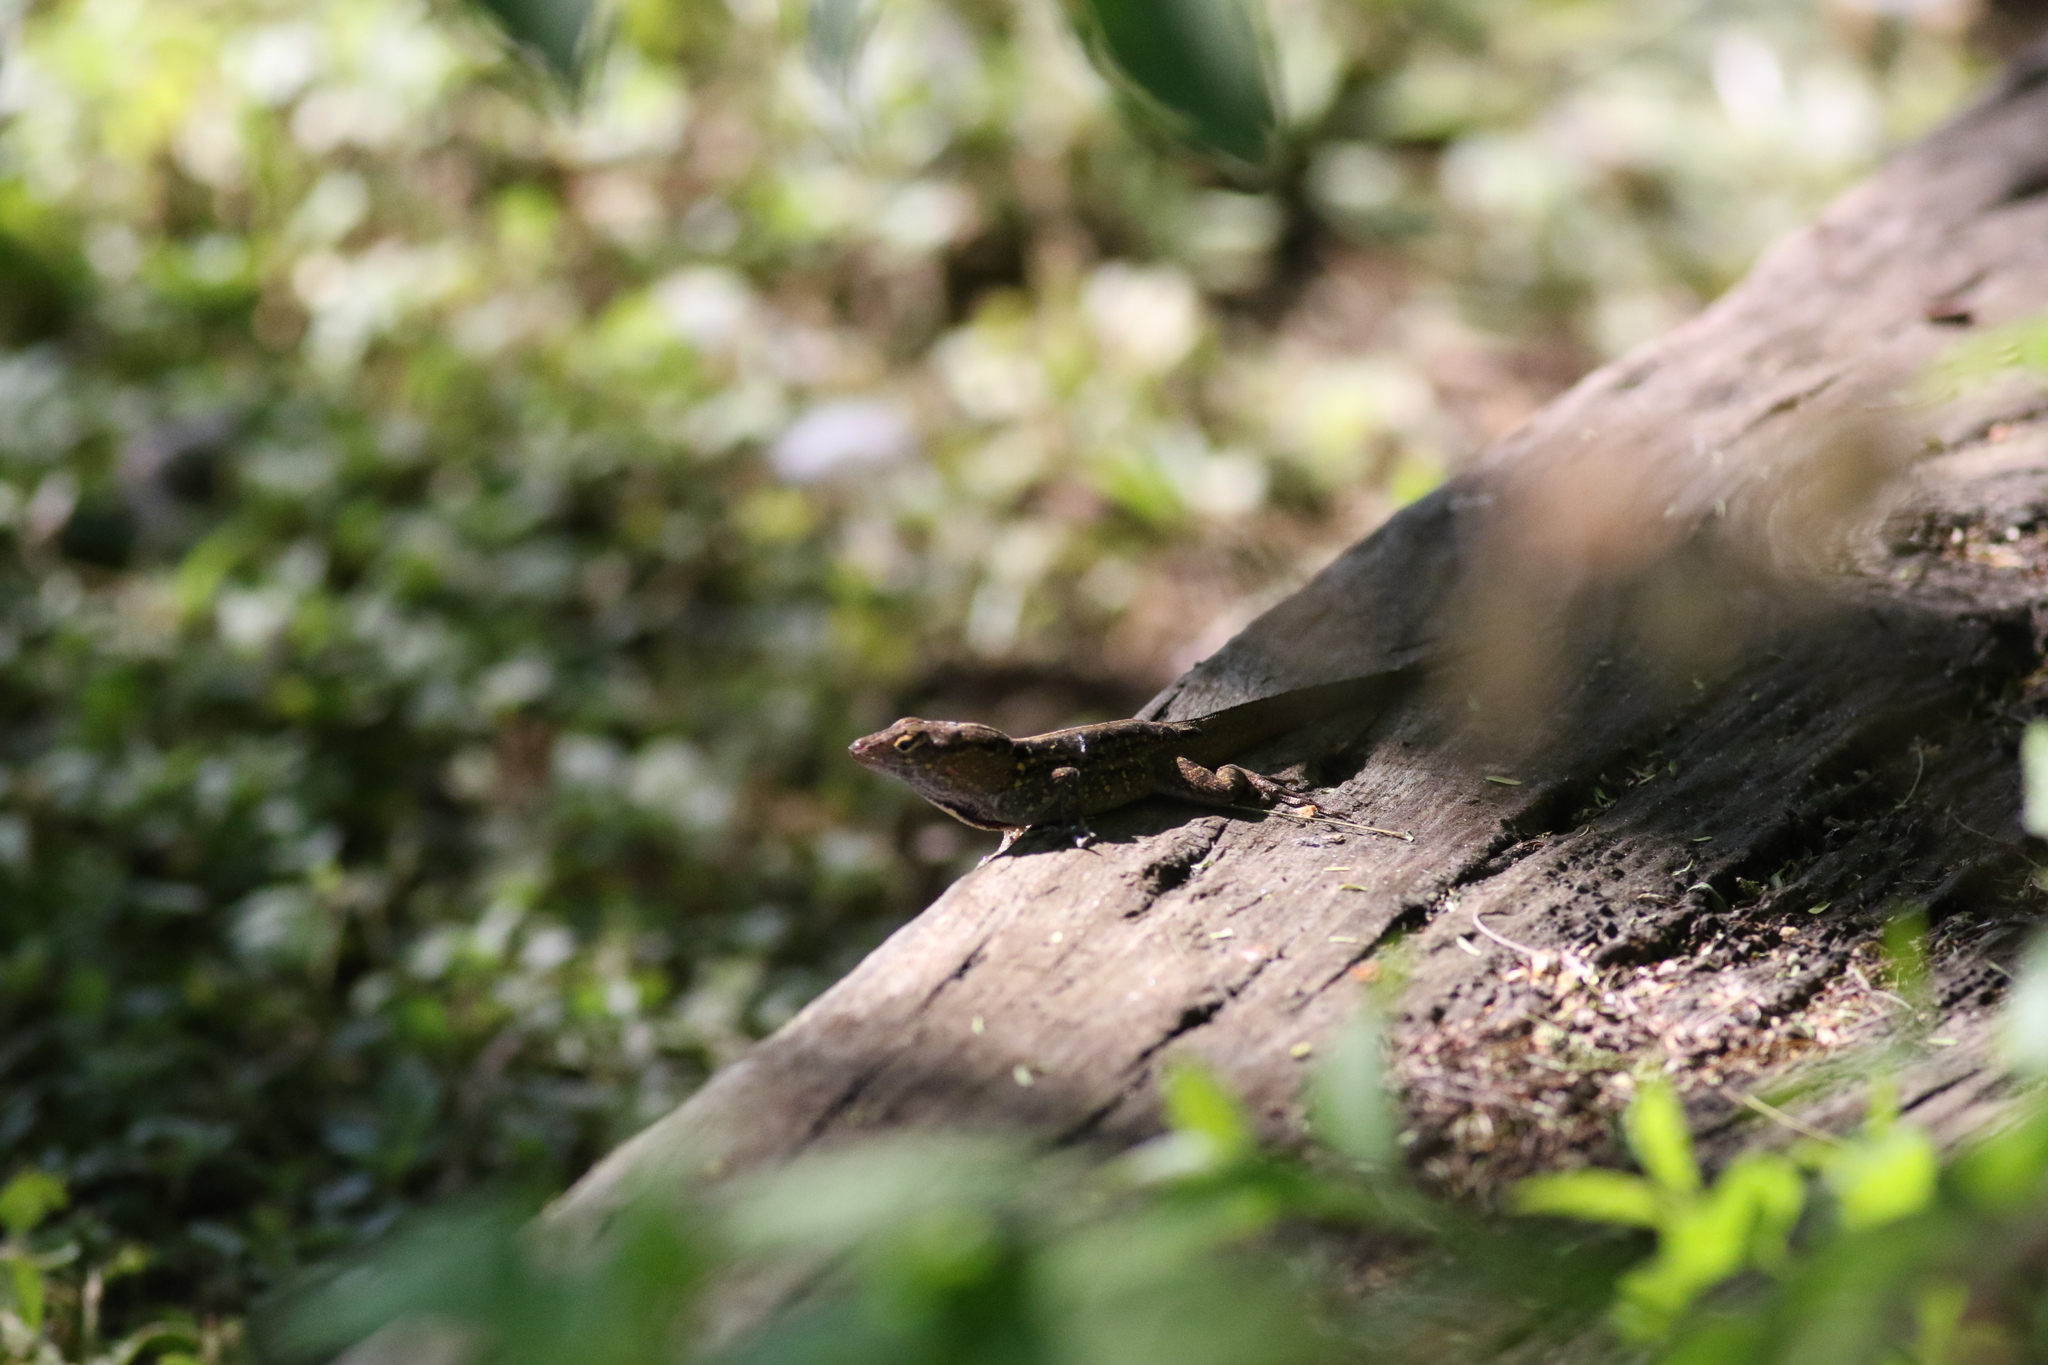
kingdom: Animalia
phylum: Chordata
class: Squamata
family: Dactyloidae
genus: Anolis
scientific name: Anolis sagrei
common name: Brown anole
